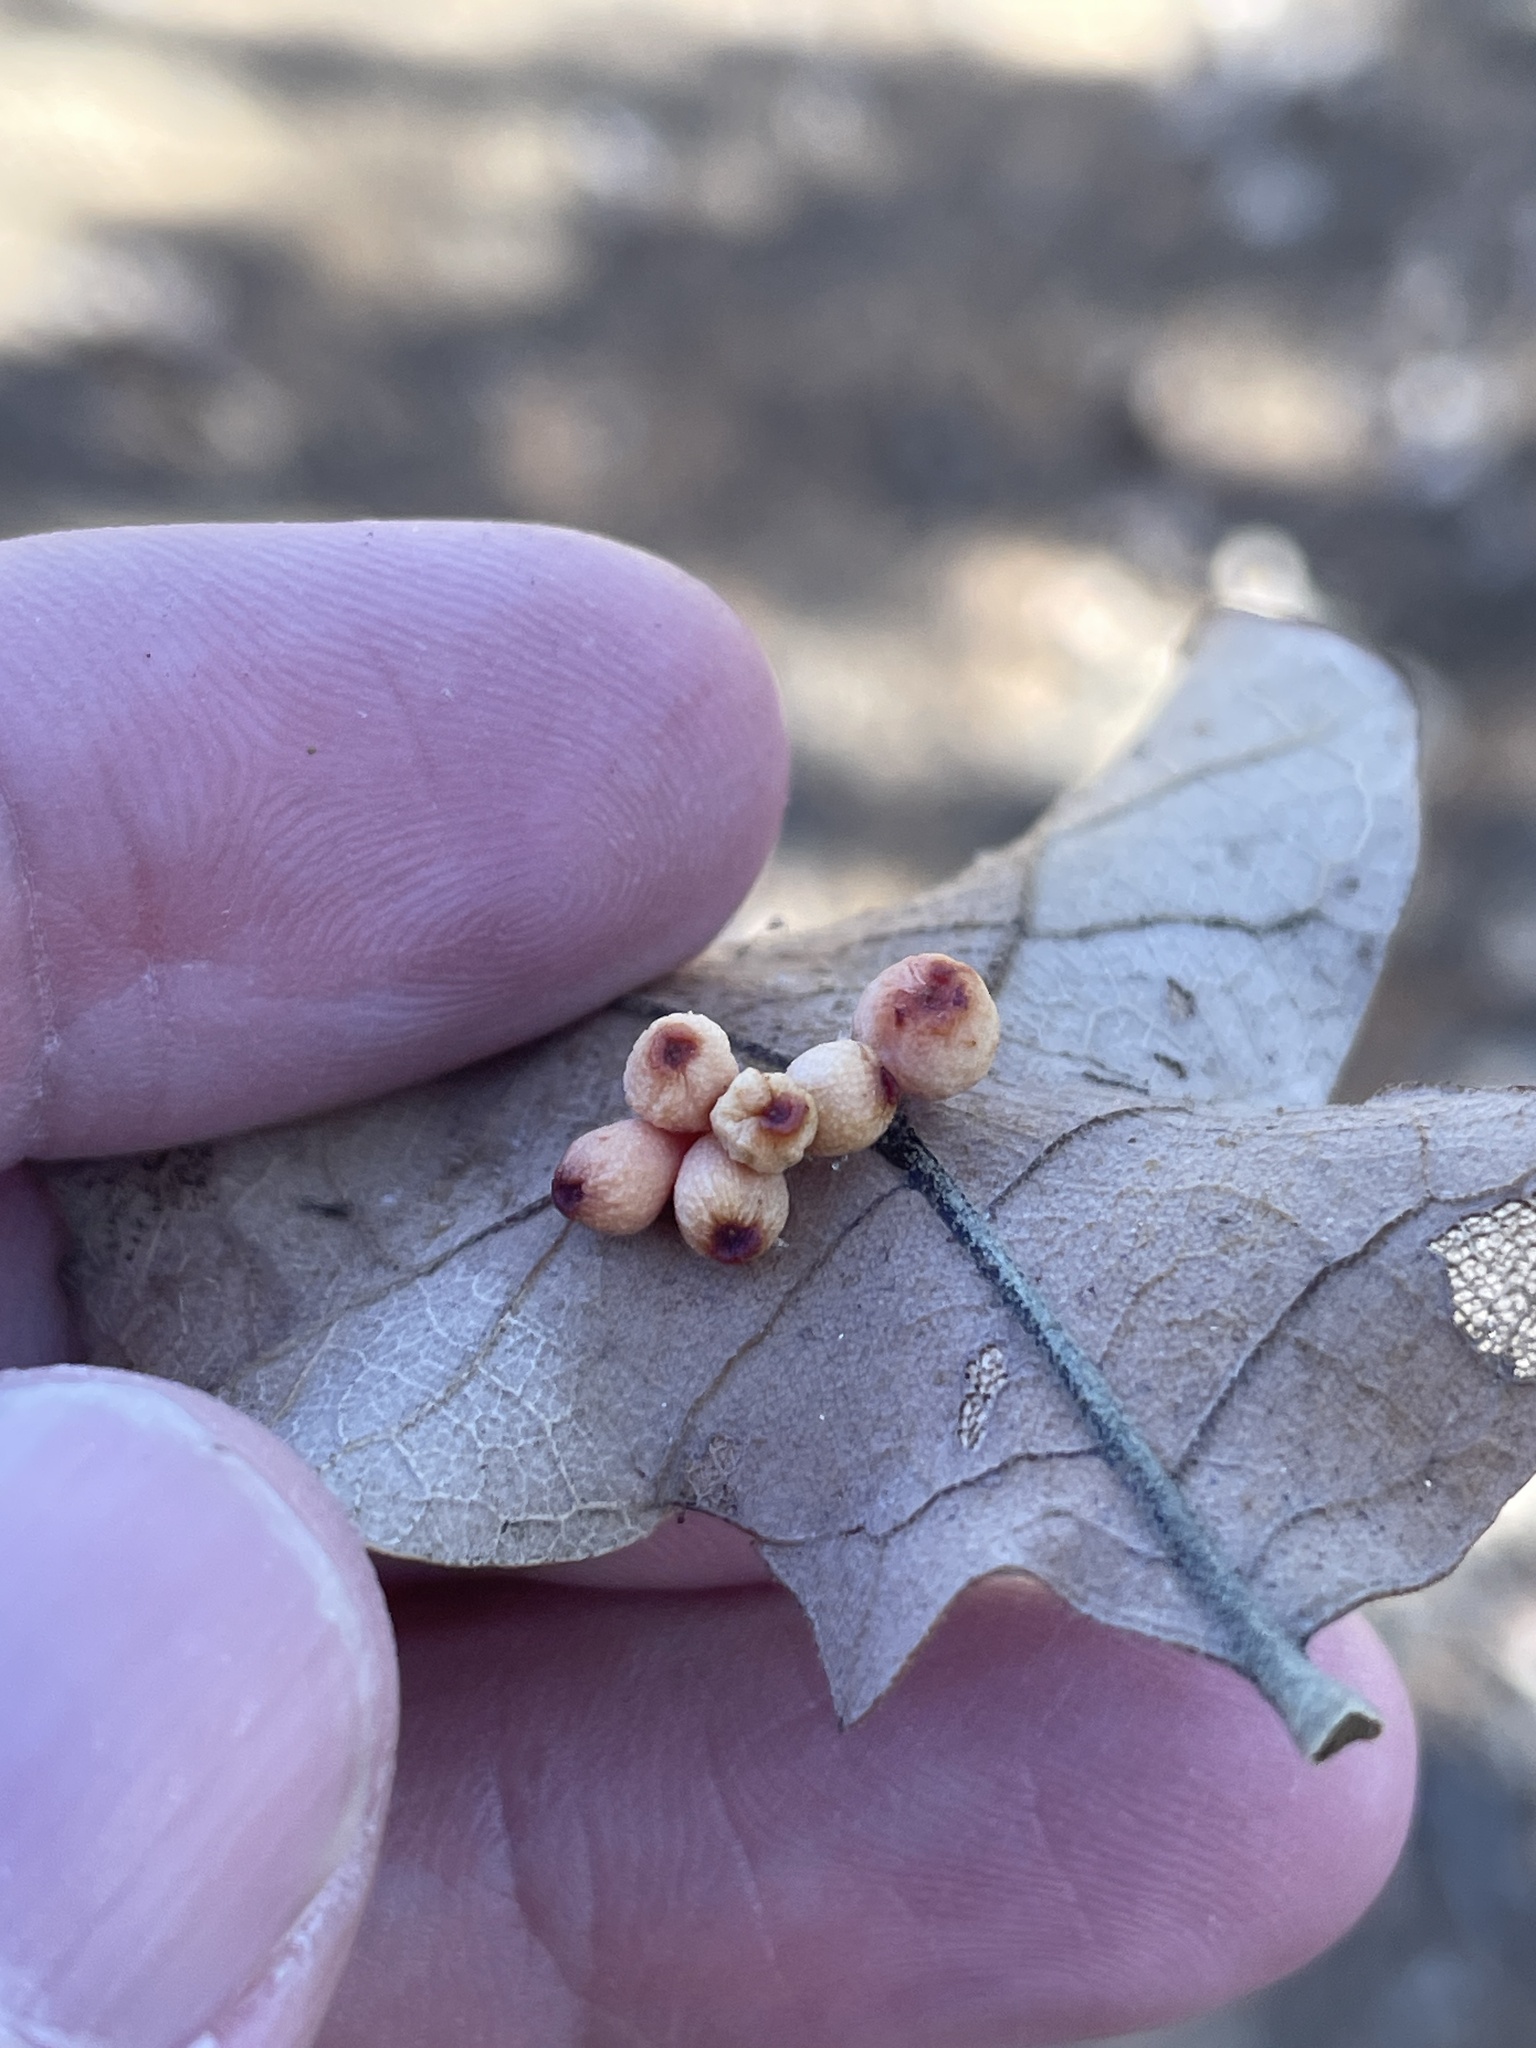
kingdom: Animalia
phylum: Arthropoda
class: Insecta
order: Hymenoptera
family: Cynipidae
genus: Andricus
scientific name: Andricus lustrans
